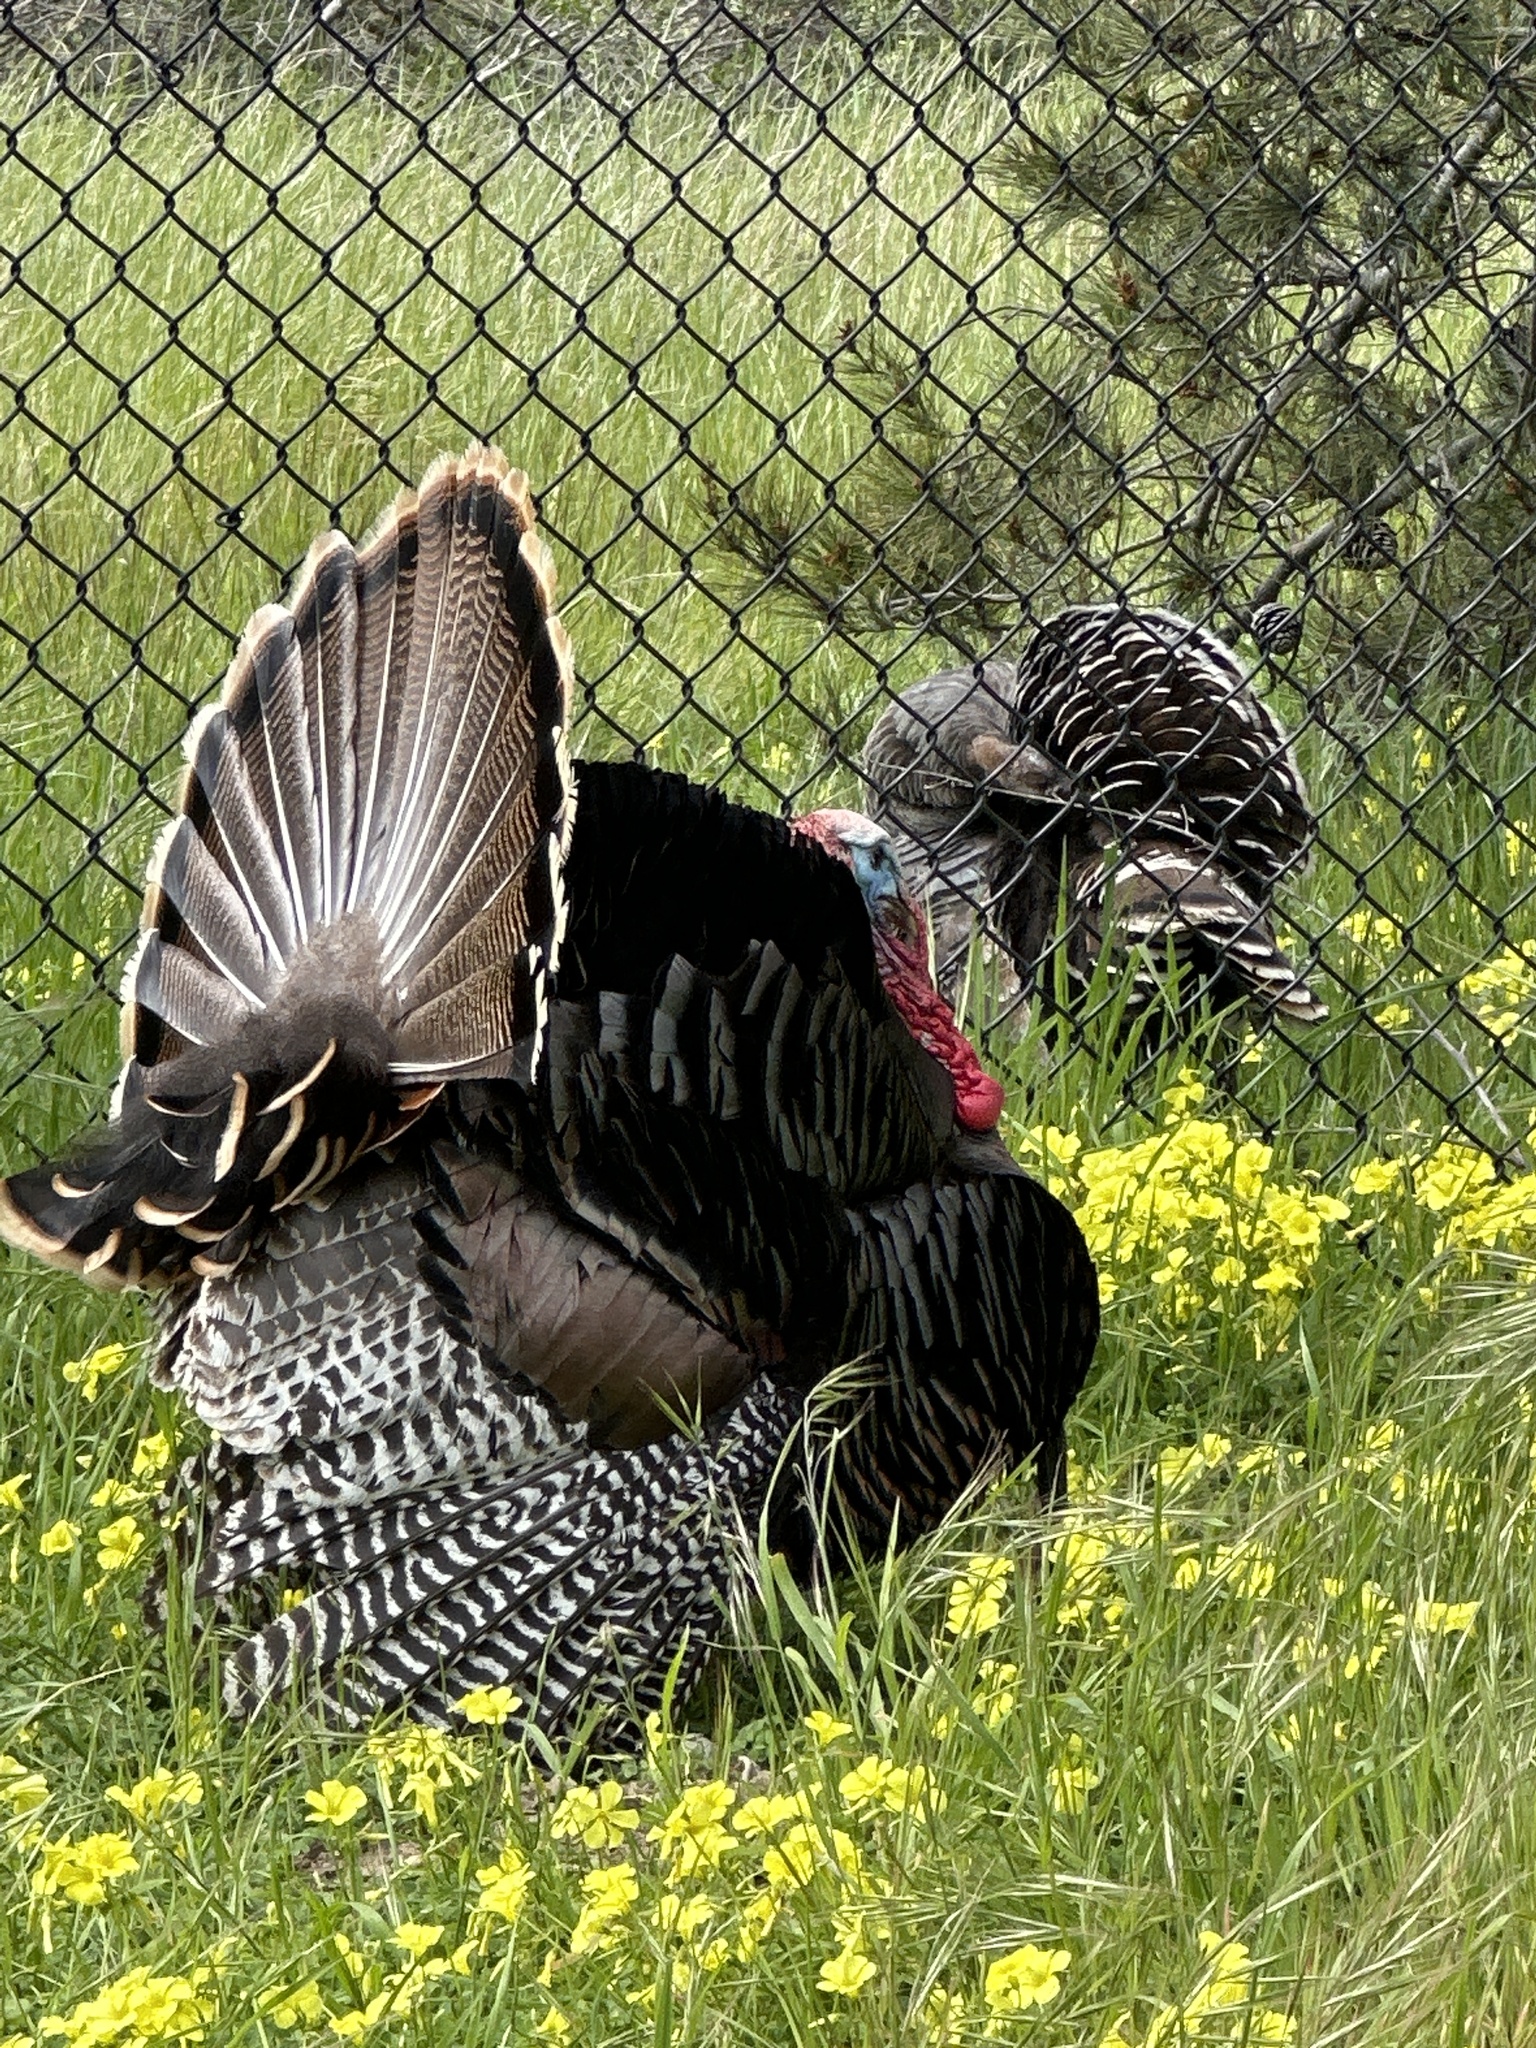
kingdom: Animalia
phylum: Chordata
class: Aves
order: Galliformes
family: Phasianidae
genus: Meleagris
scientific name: Meleagris gallopavo
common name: Wild turkey
